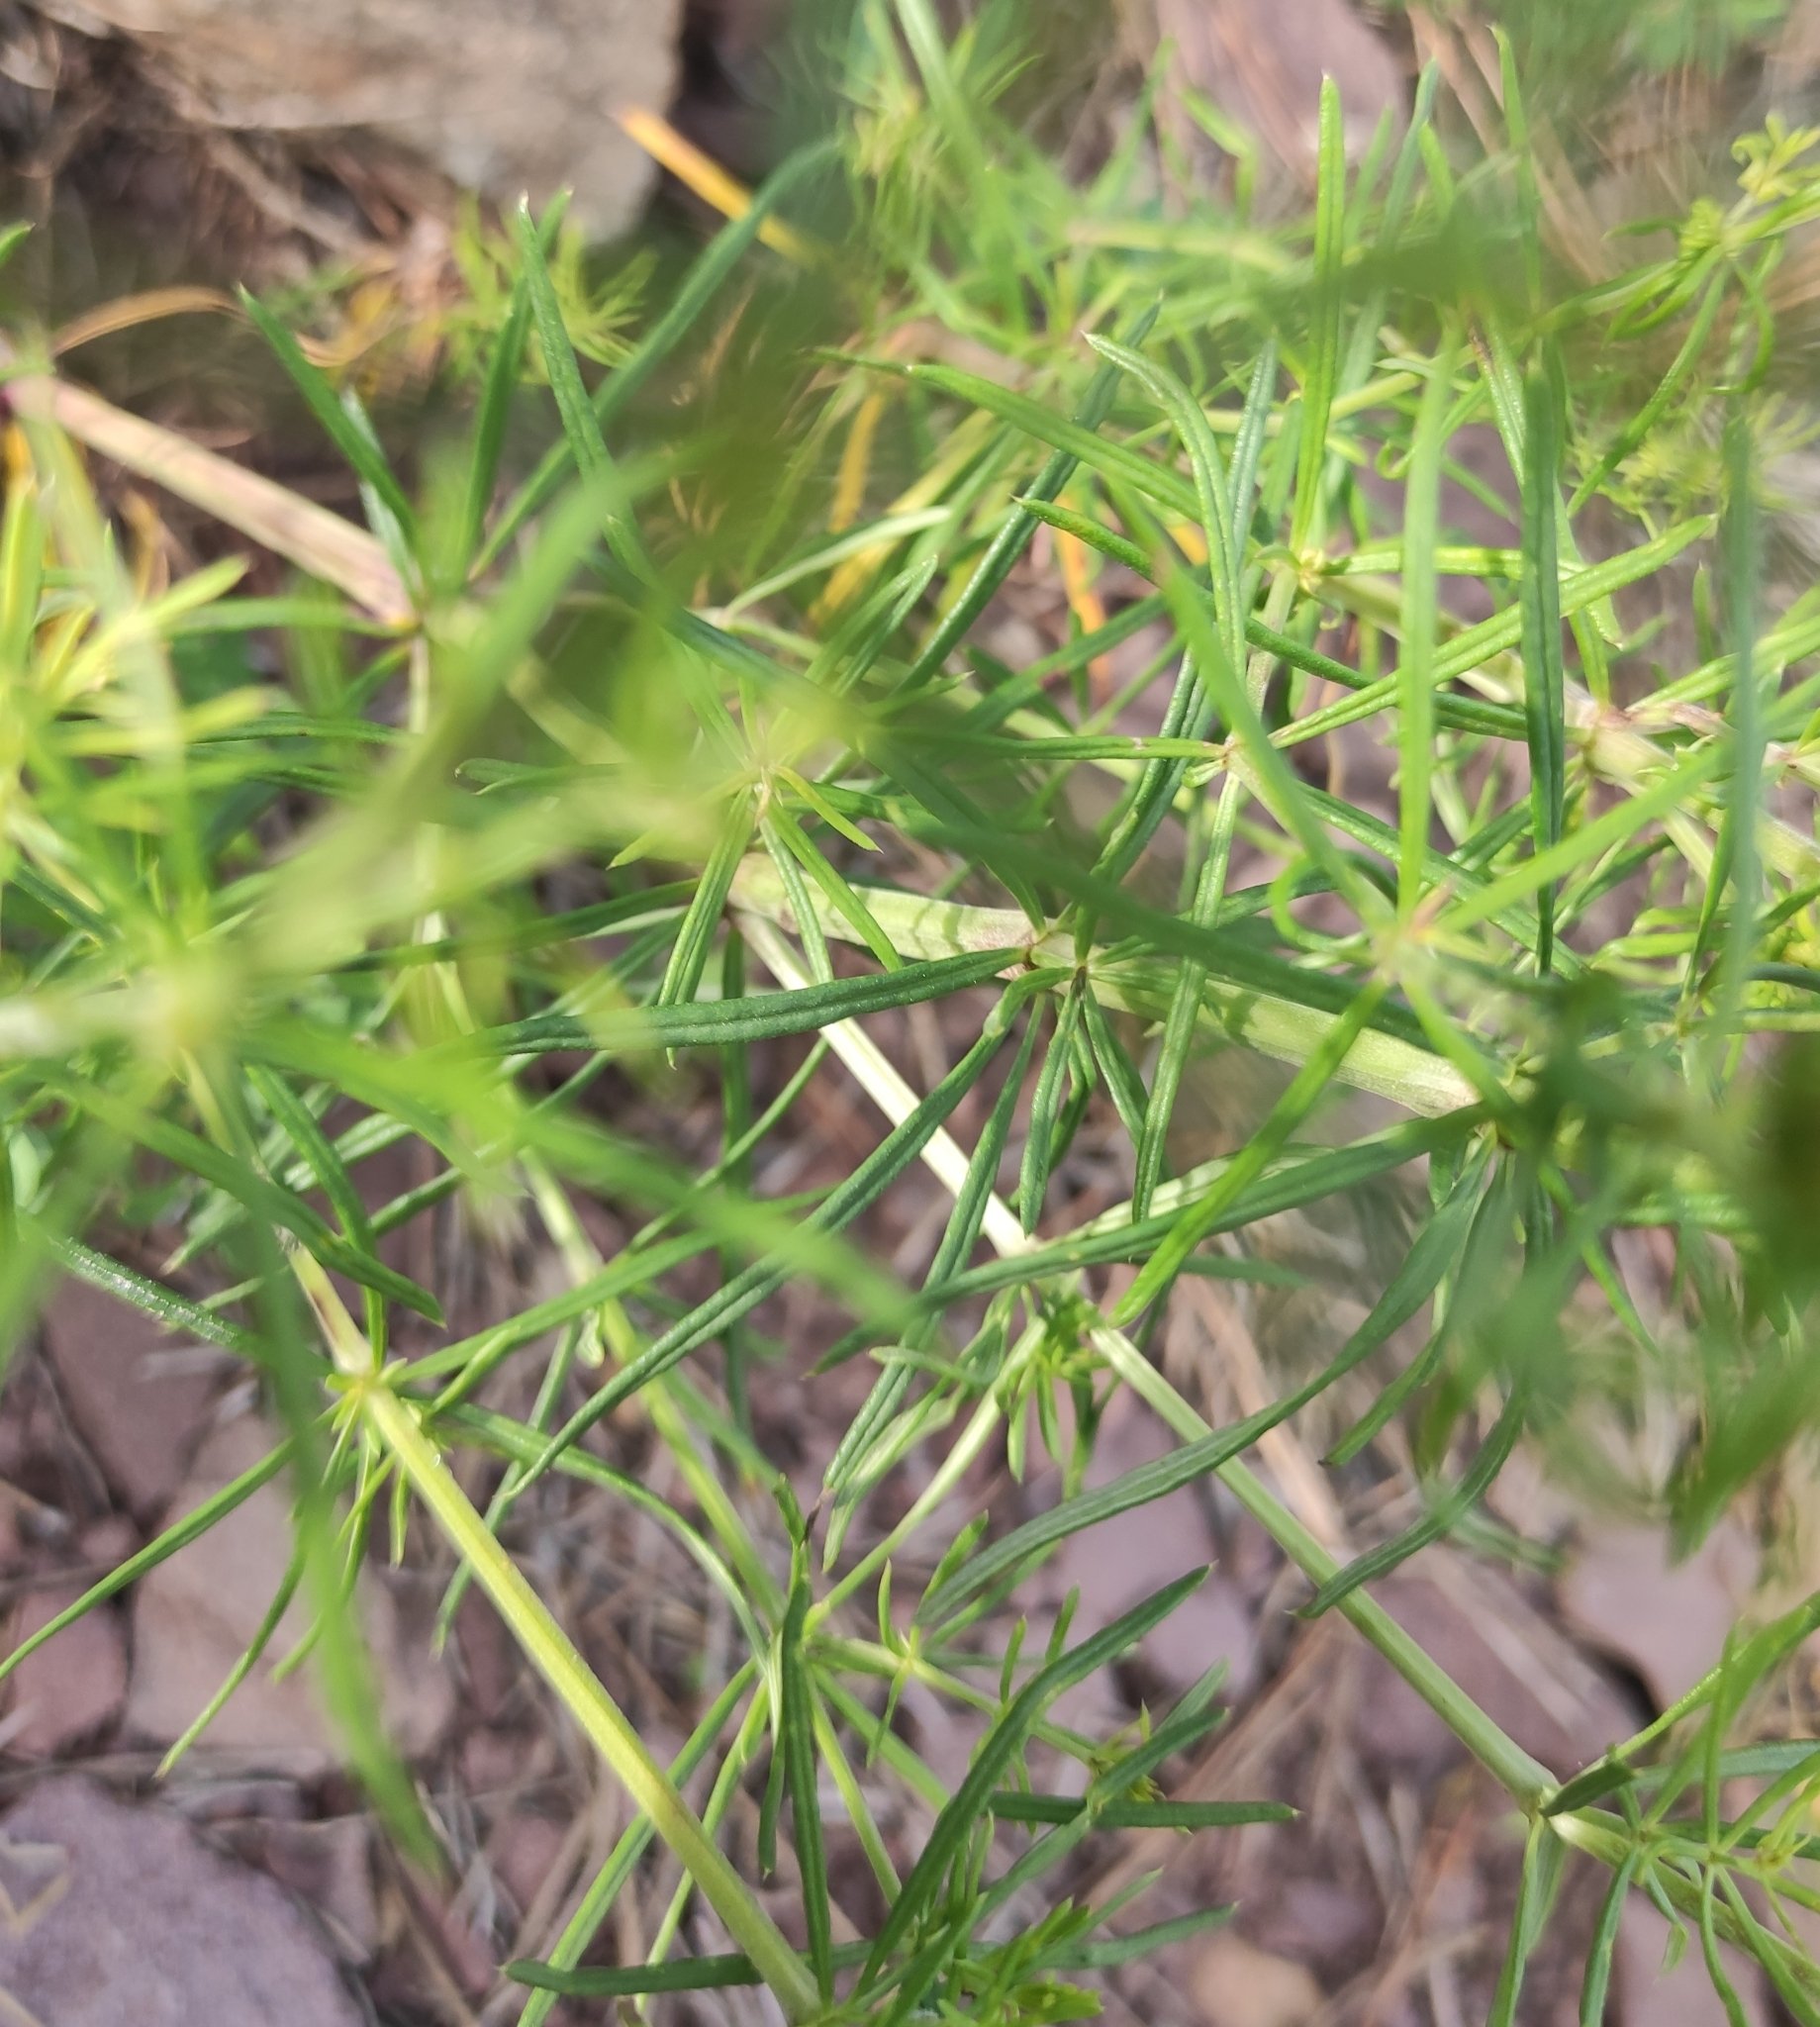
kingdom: Plantae
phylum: Tracheophyta
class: Magnoliopsida
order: Gentianales
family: Rubiaceae
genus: Galium
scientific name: Galium verum
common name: Lady's bedstraw
